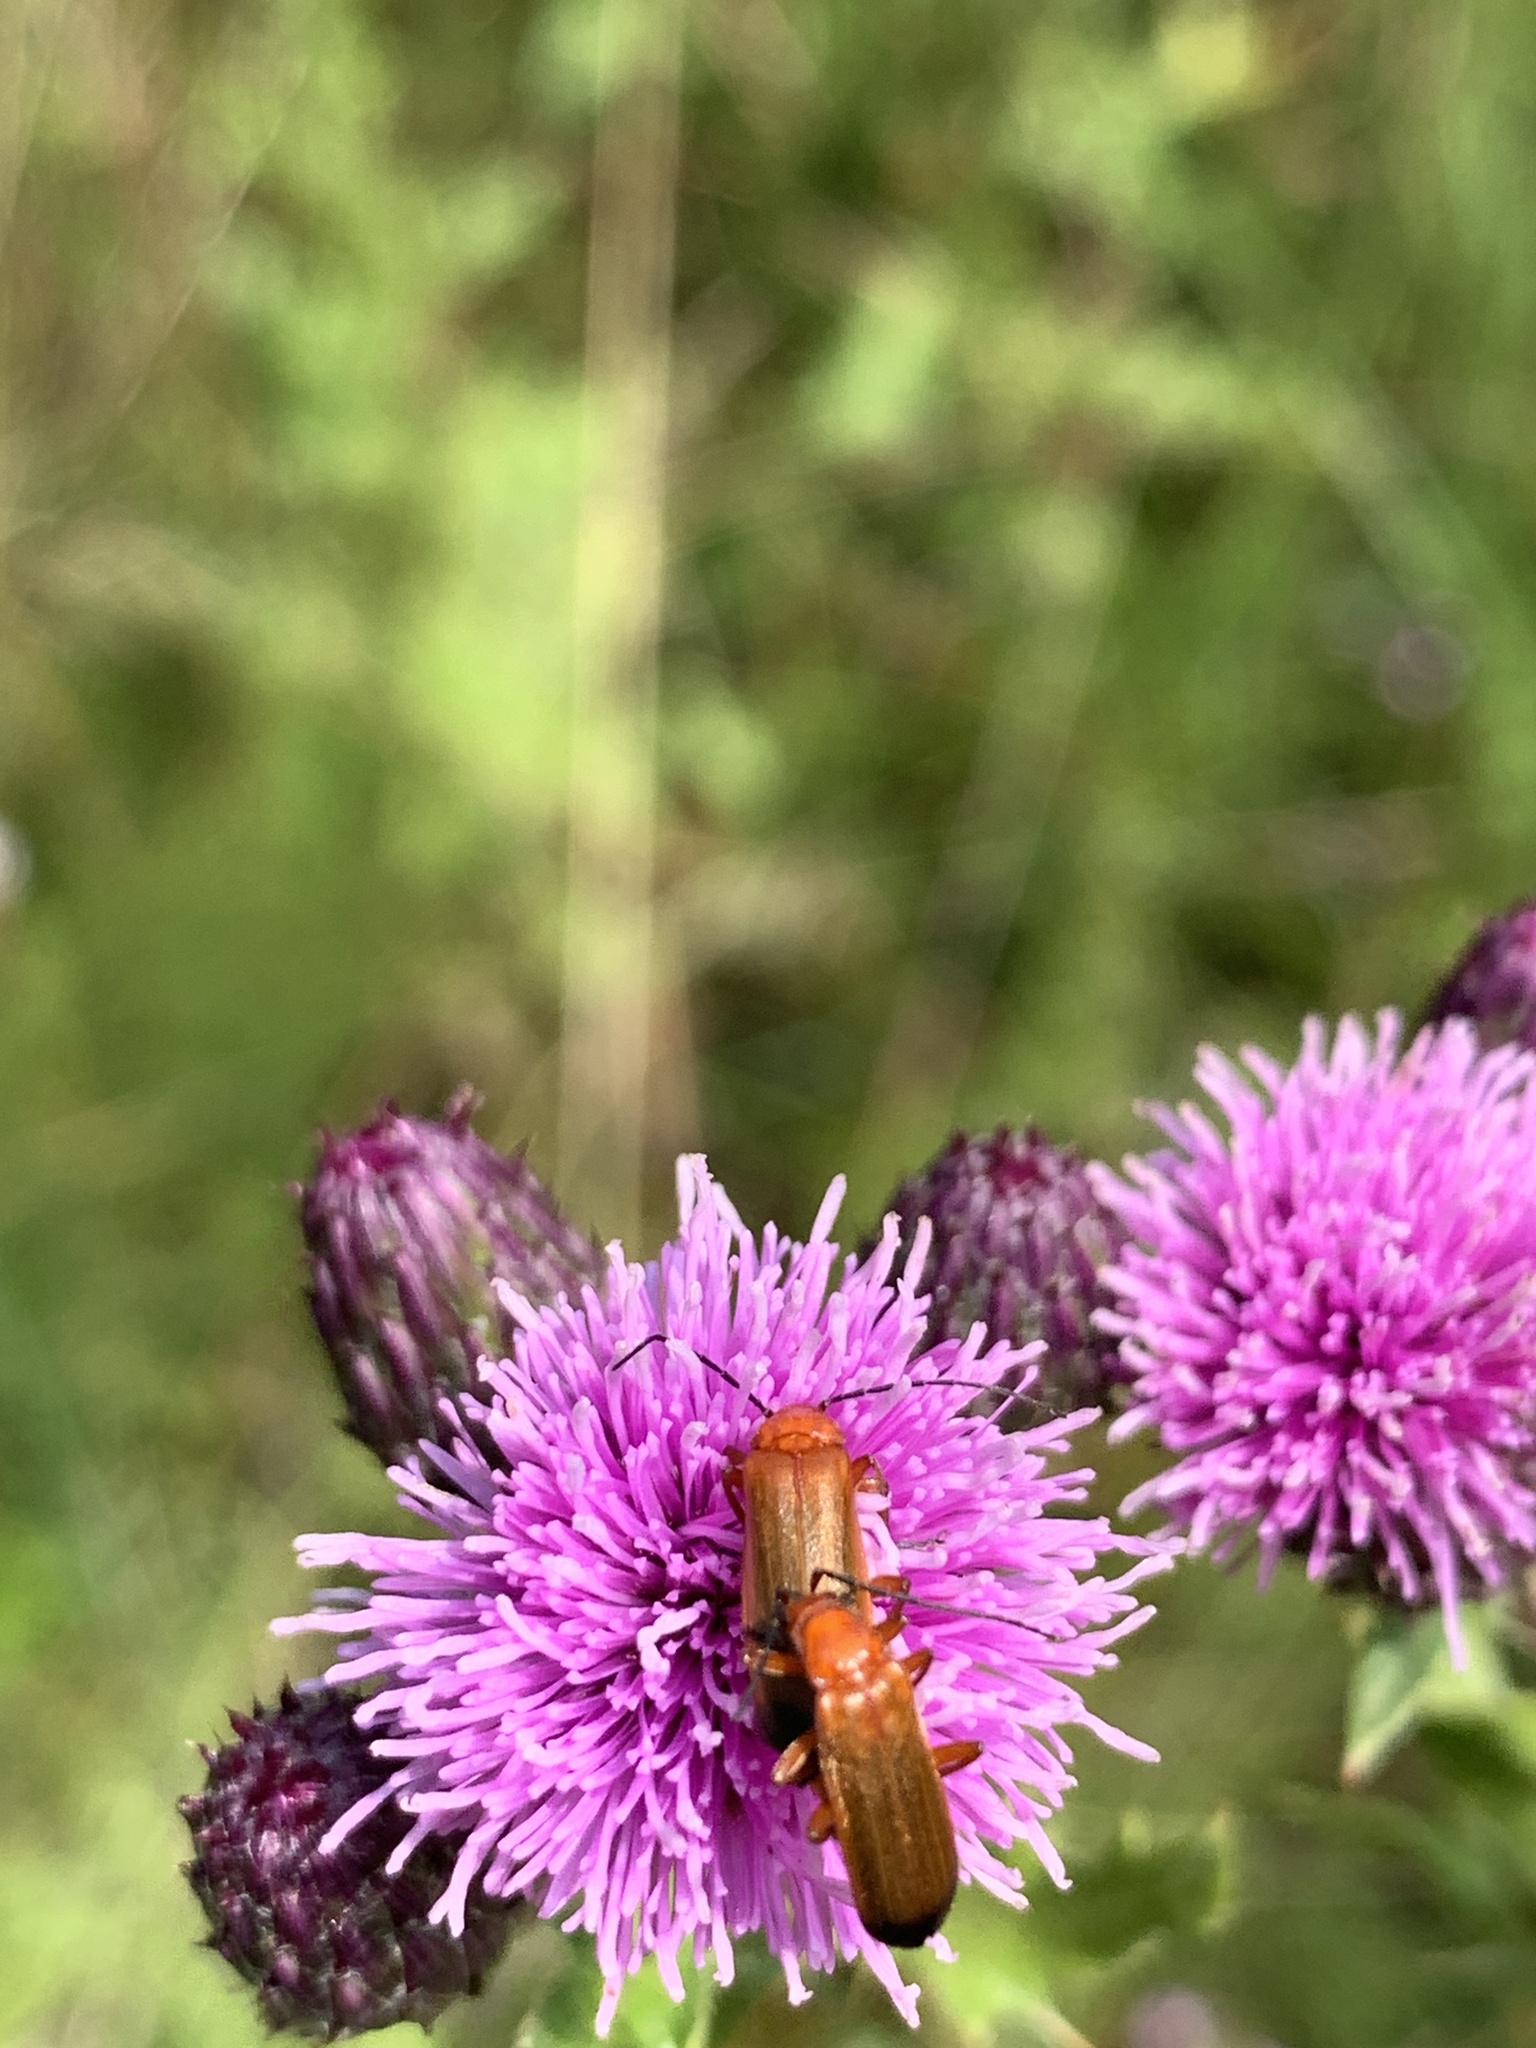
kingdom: Animalia
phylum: Arthropoda
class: Insecta
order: Coleoptera
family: Cantharidae
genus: Rhagonycha
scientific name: Rhagonycha fulva
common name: Common red soldier beetle
